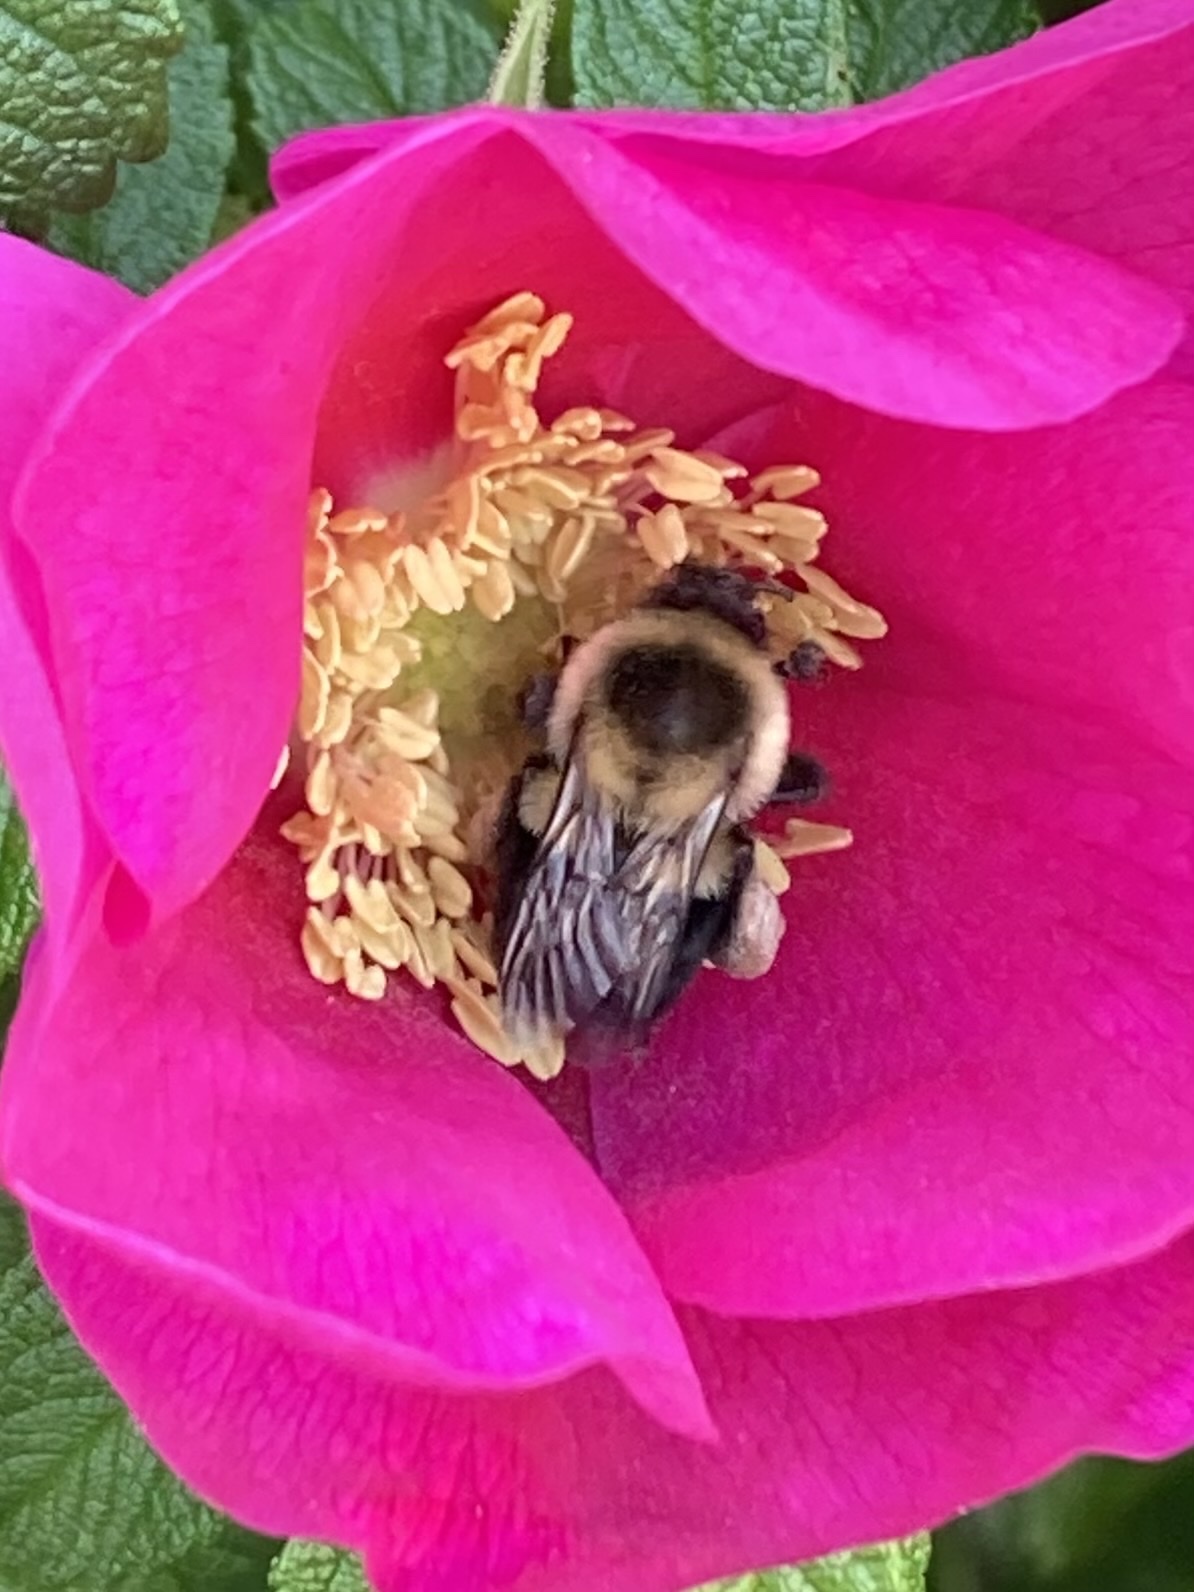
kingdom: Animalia
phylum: Arthropoda
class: Insecta
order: Hymenoptera
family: Apidae
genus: Bombus
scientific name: Bombus impatiens
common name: Common eastern bumble bee
